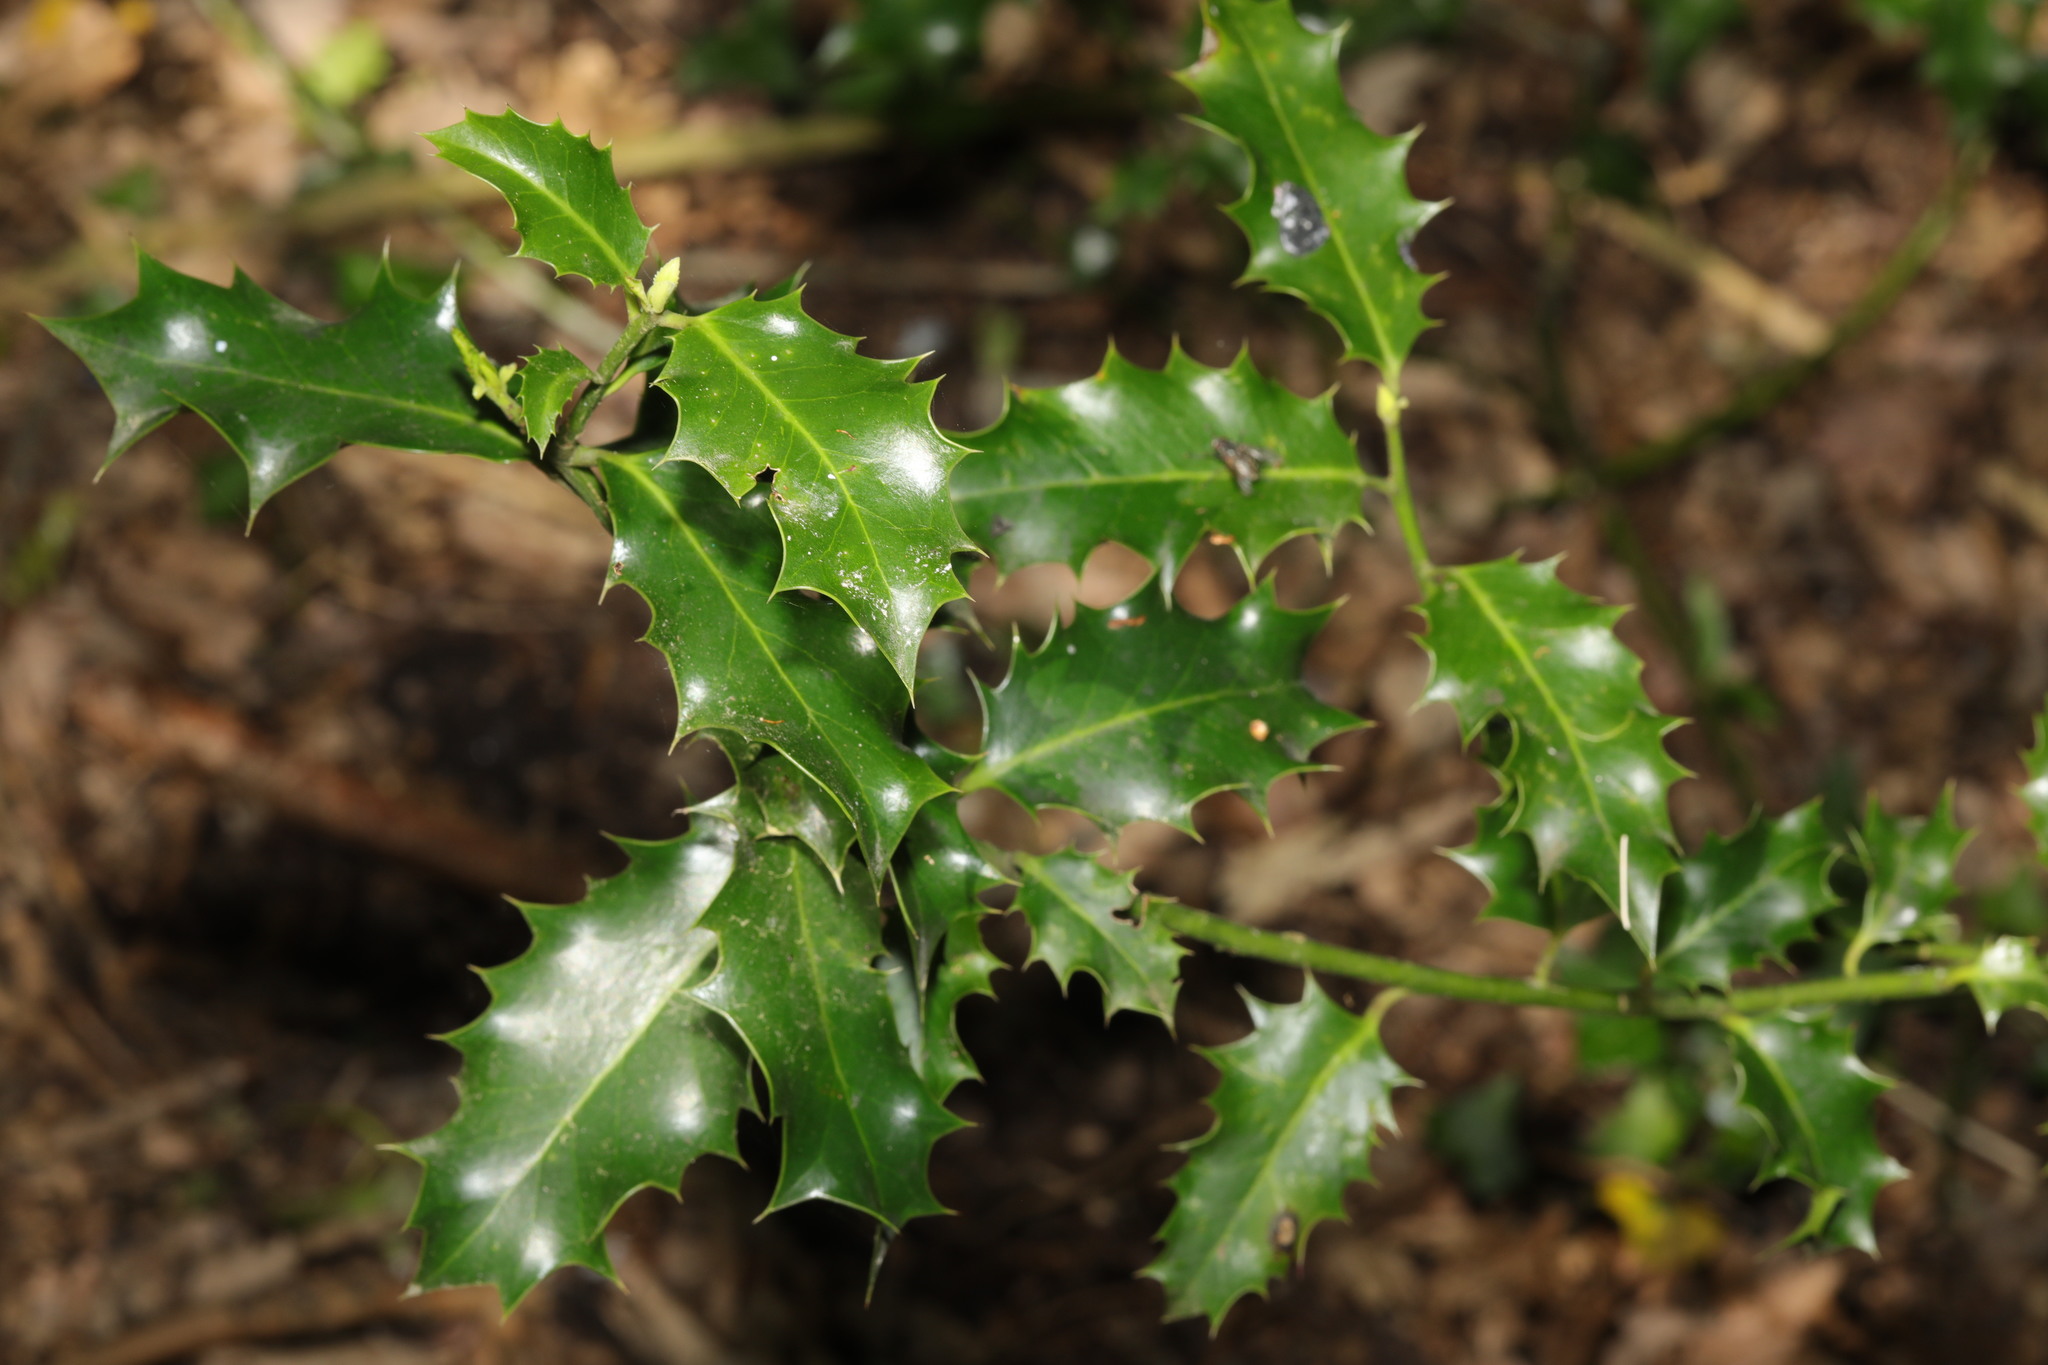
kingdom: Plantae
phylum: Tracheophyta
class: Magnoliopsida
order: Aquifoliales
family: Aquifoliaceae
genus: Ilex
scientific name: Ilex aquifolium
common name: English holly
